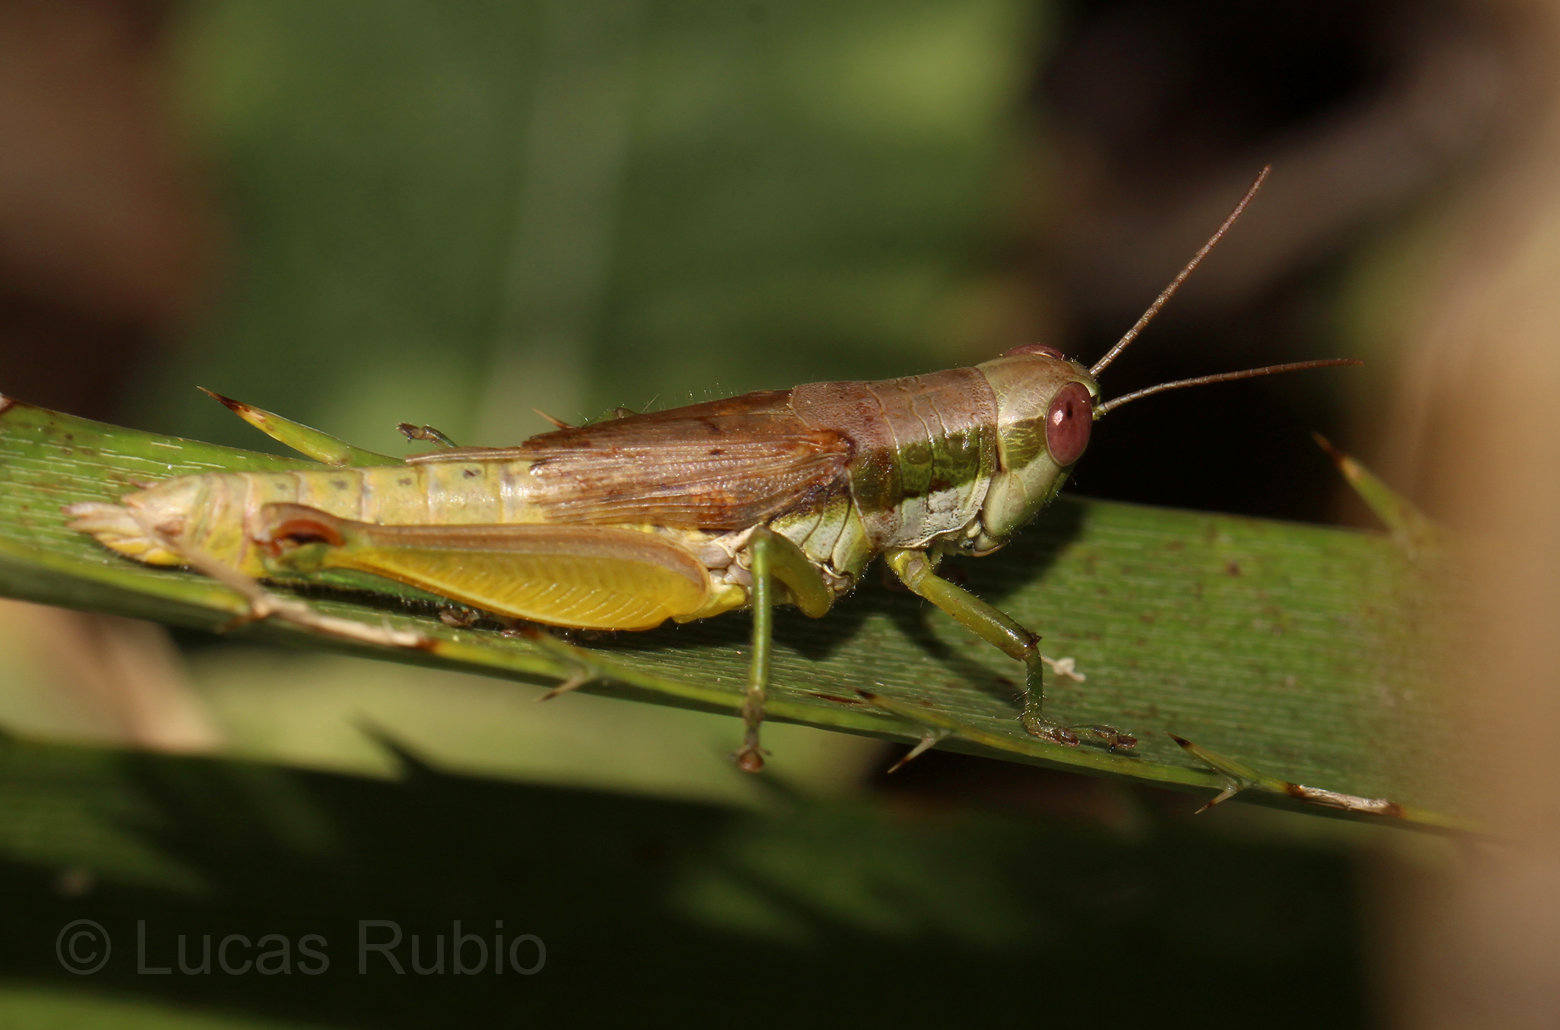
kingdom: Animalia
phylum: Arthropoda
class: Insecta
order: Orthoptera
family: Acrididae
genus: Scotussa
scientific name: Scotussa liebermanni
